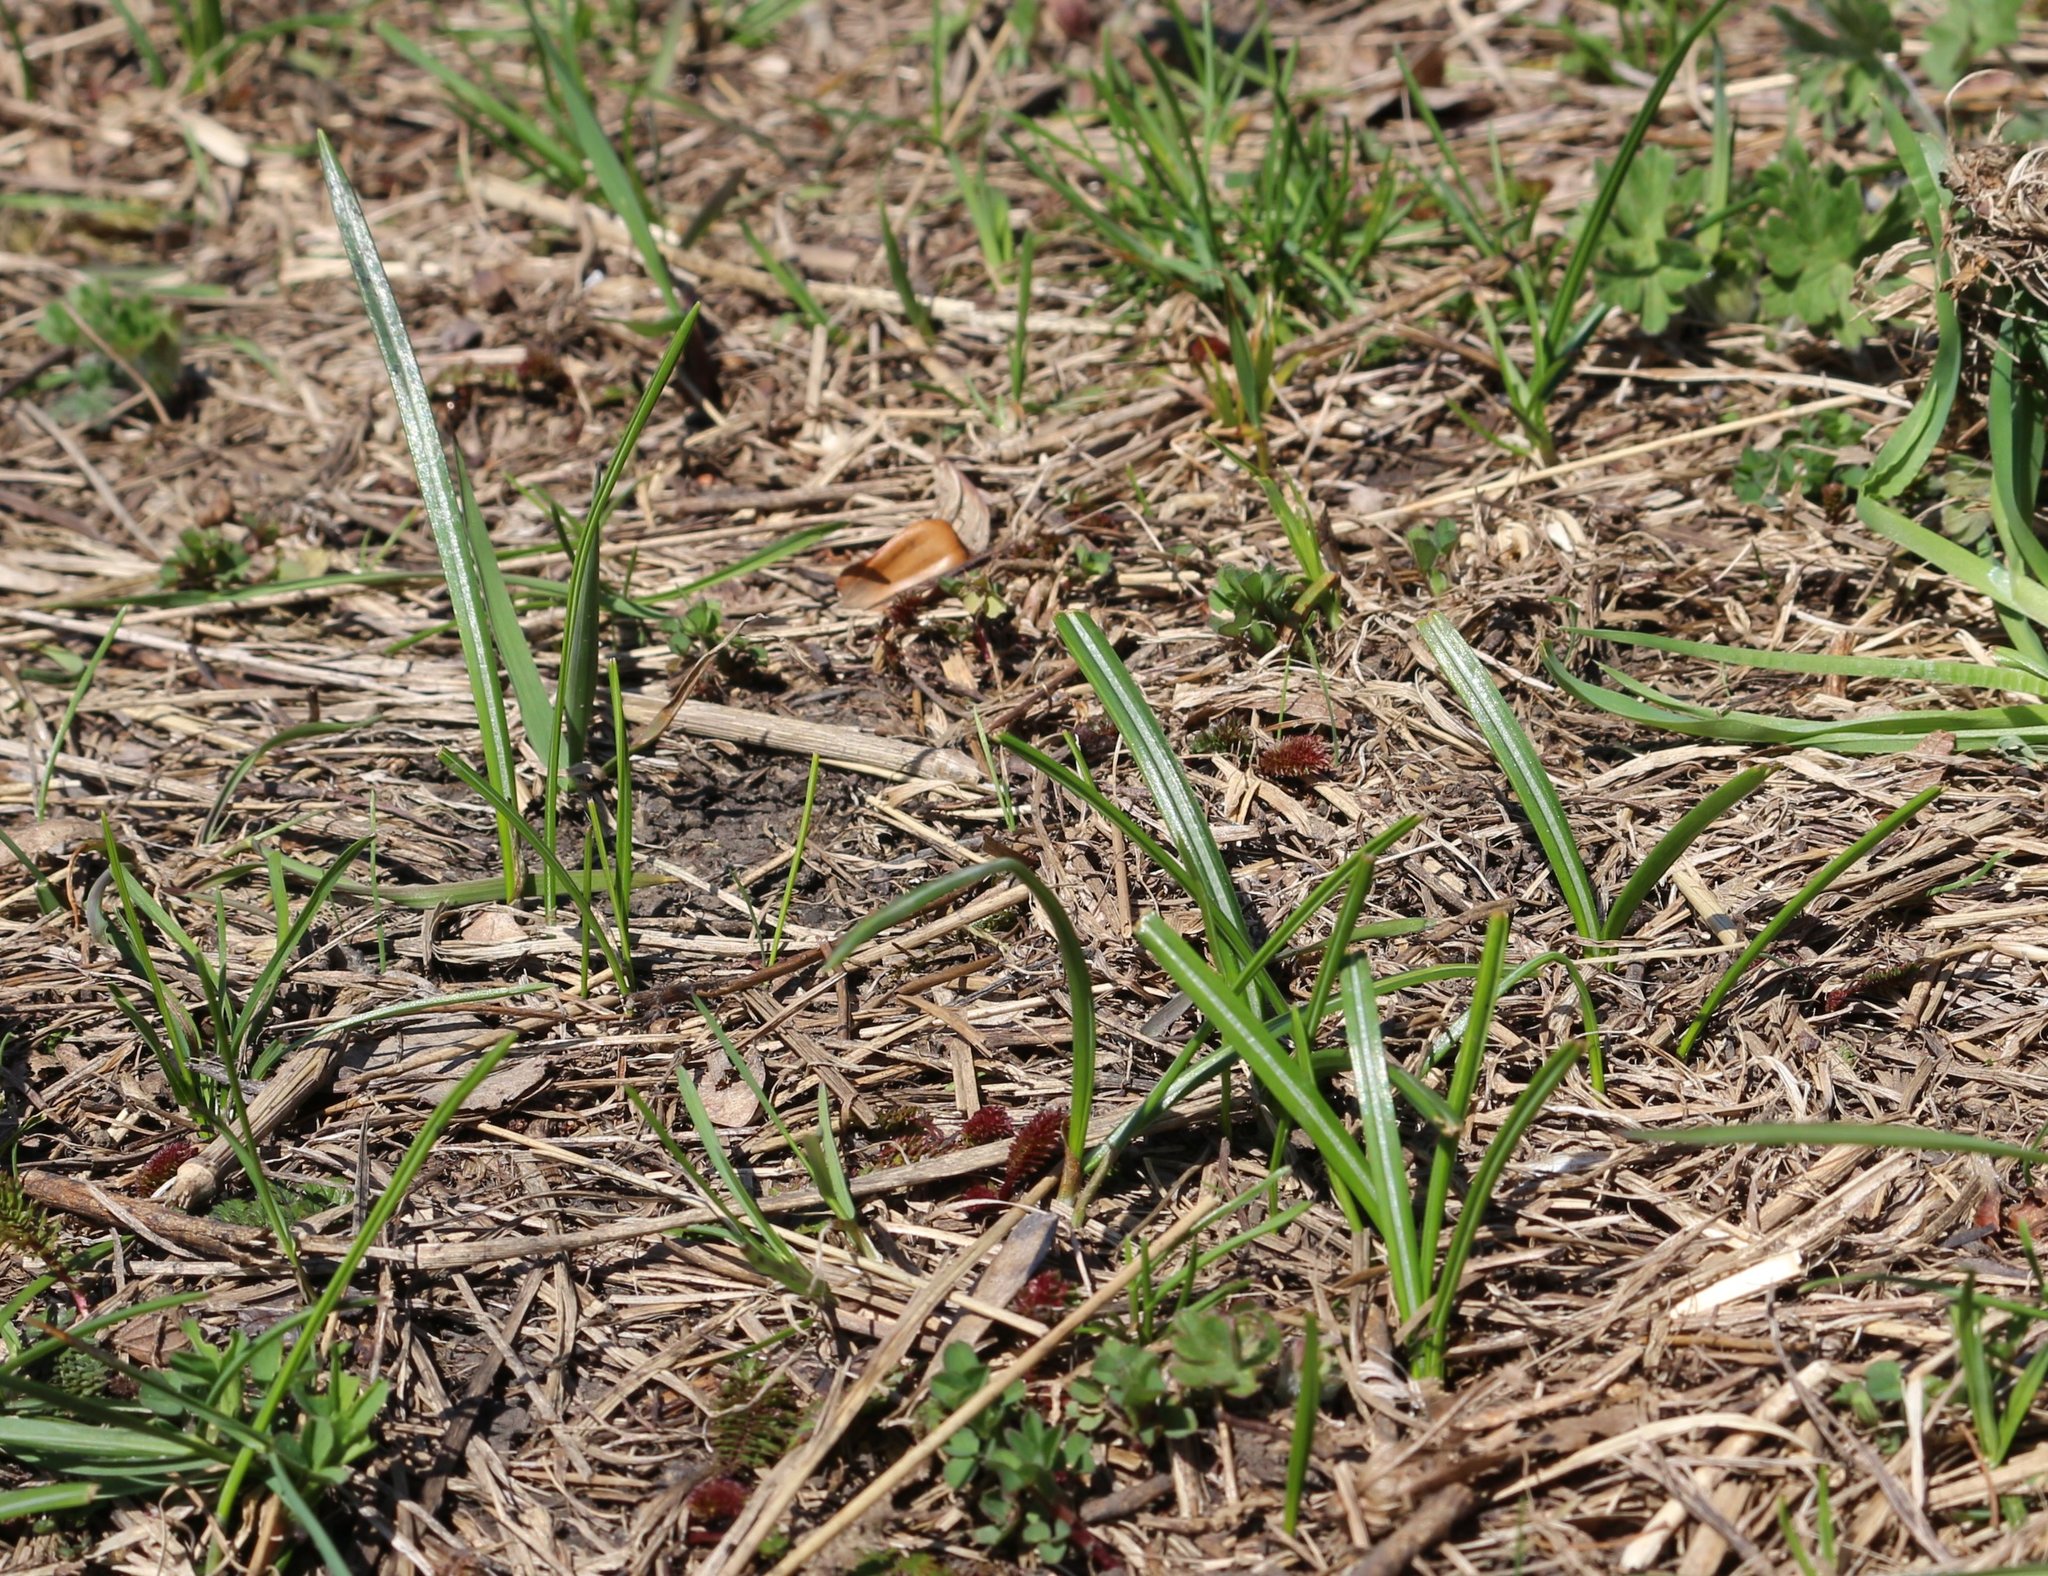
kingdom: Plantae
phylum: Tracheophyta
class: Liliopsida
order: Asparagales
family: Iridaceae
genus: Crocus
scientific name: Crocus speciosus
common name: Bieberstein's crocus
